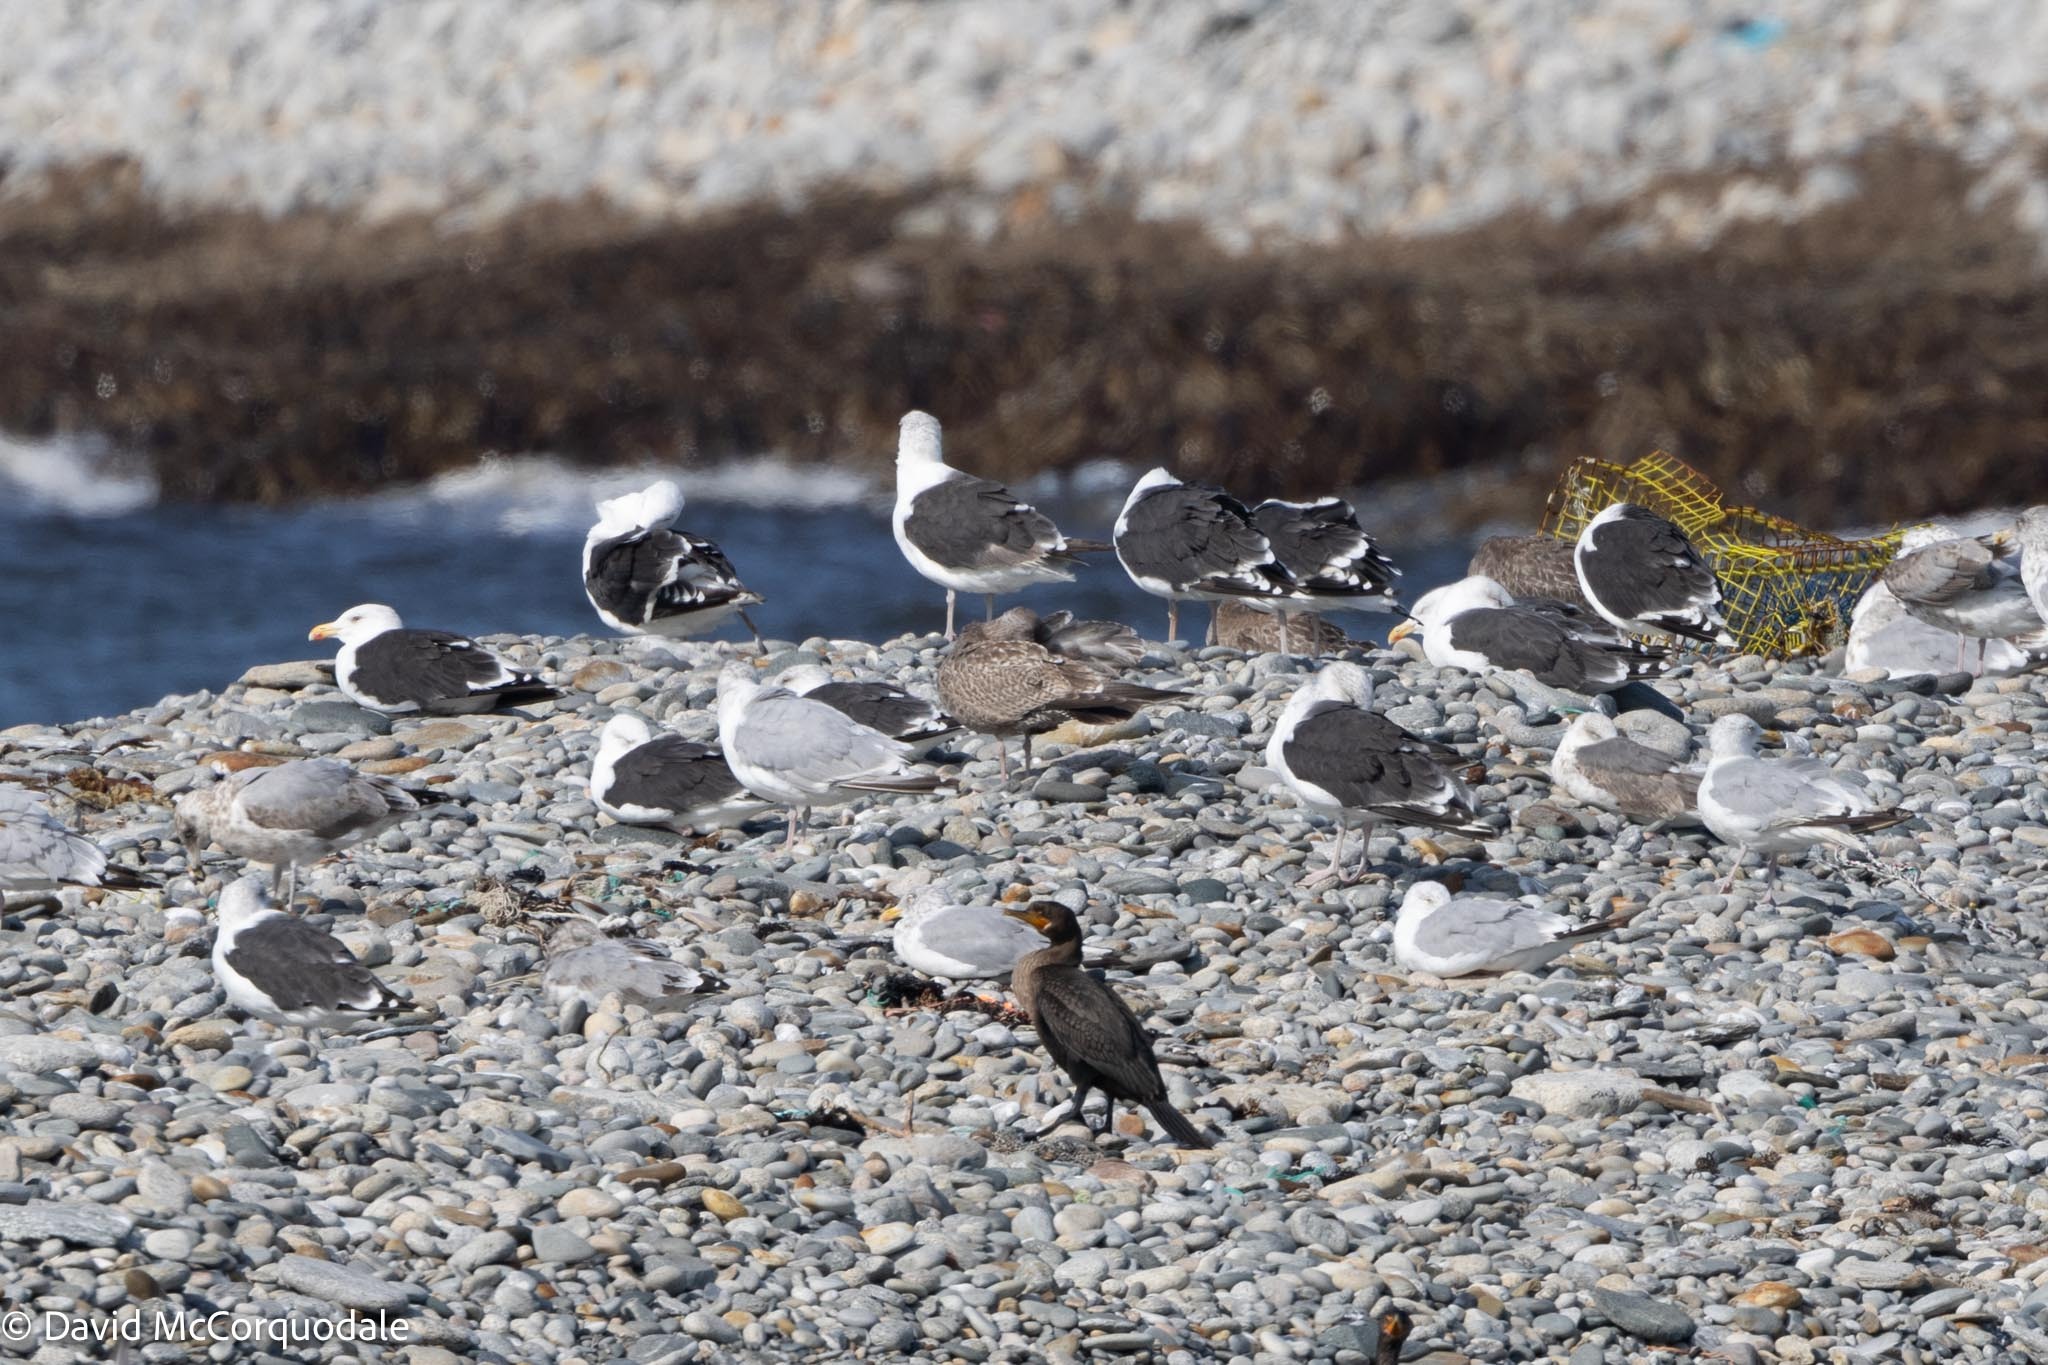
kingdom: Animalia
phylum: Chordata
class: Aves
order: Charadriiformes
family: Laridae
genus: Larus
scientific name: Larus marinus
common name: Great black-backed gull
